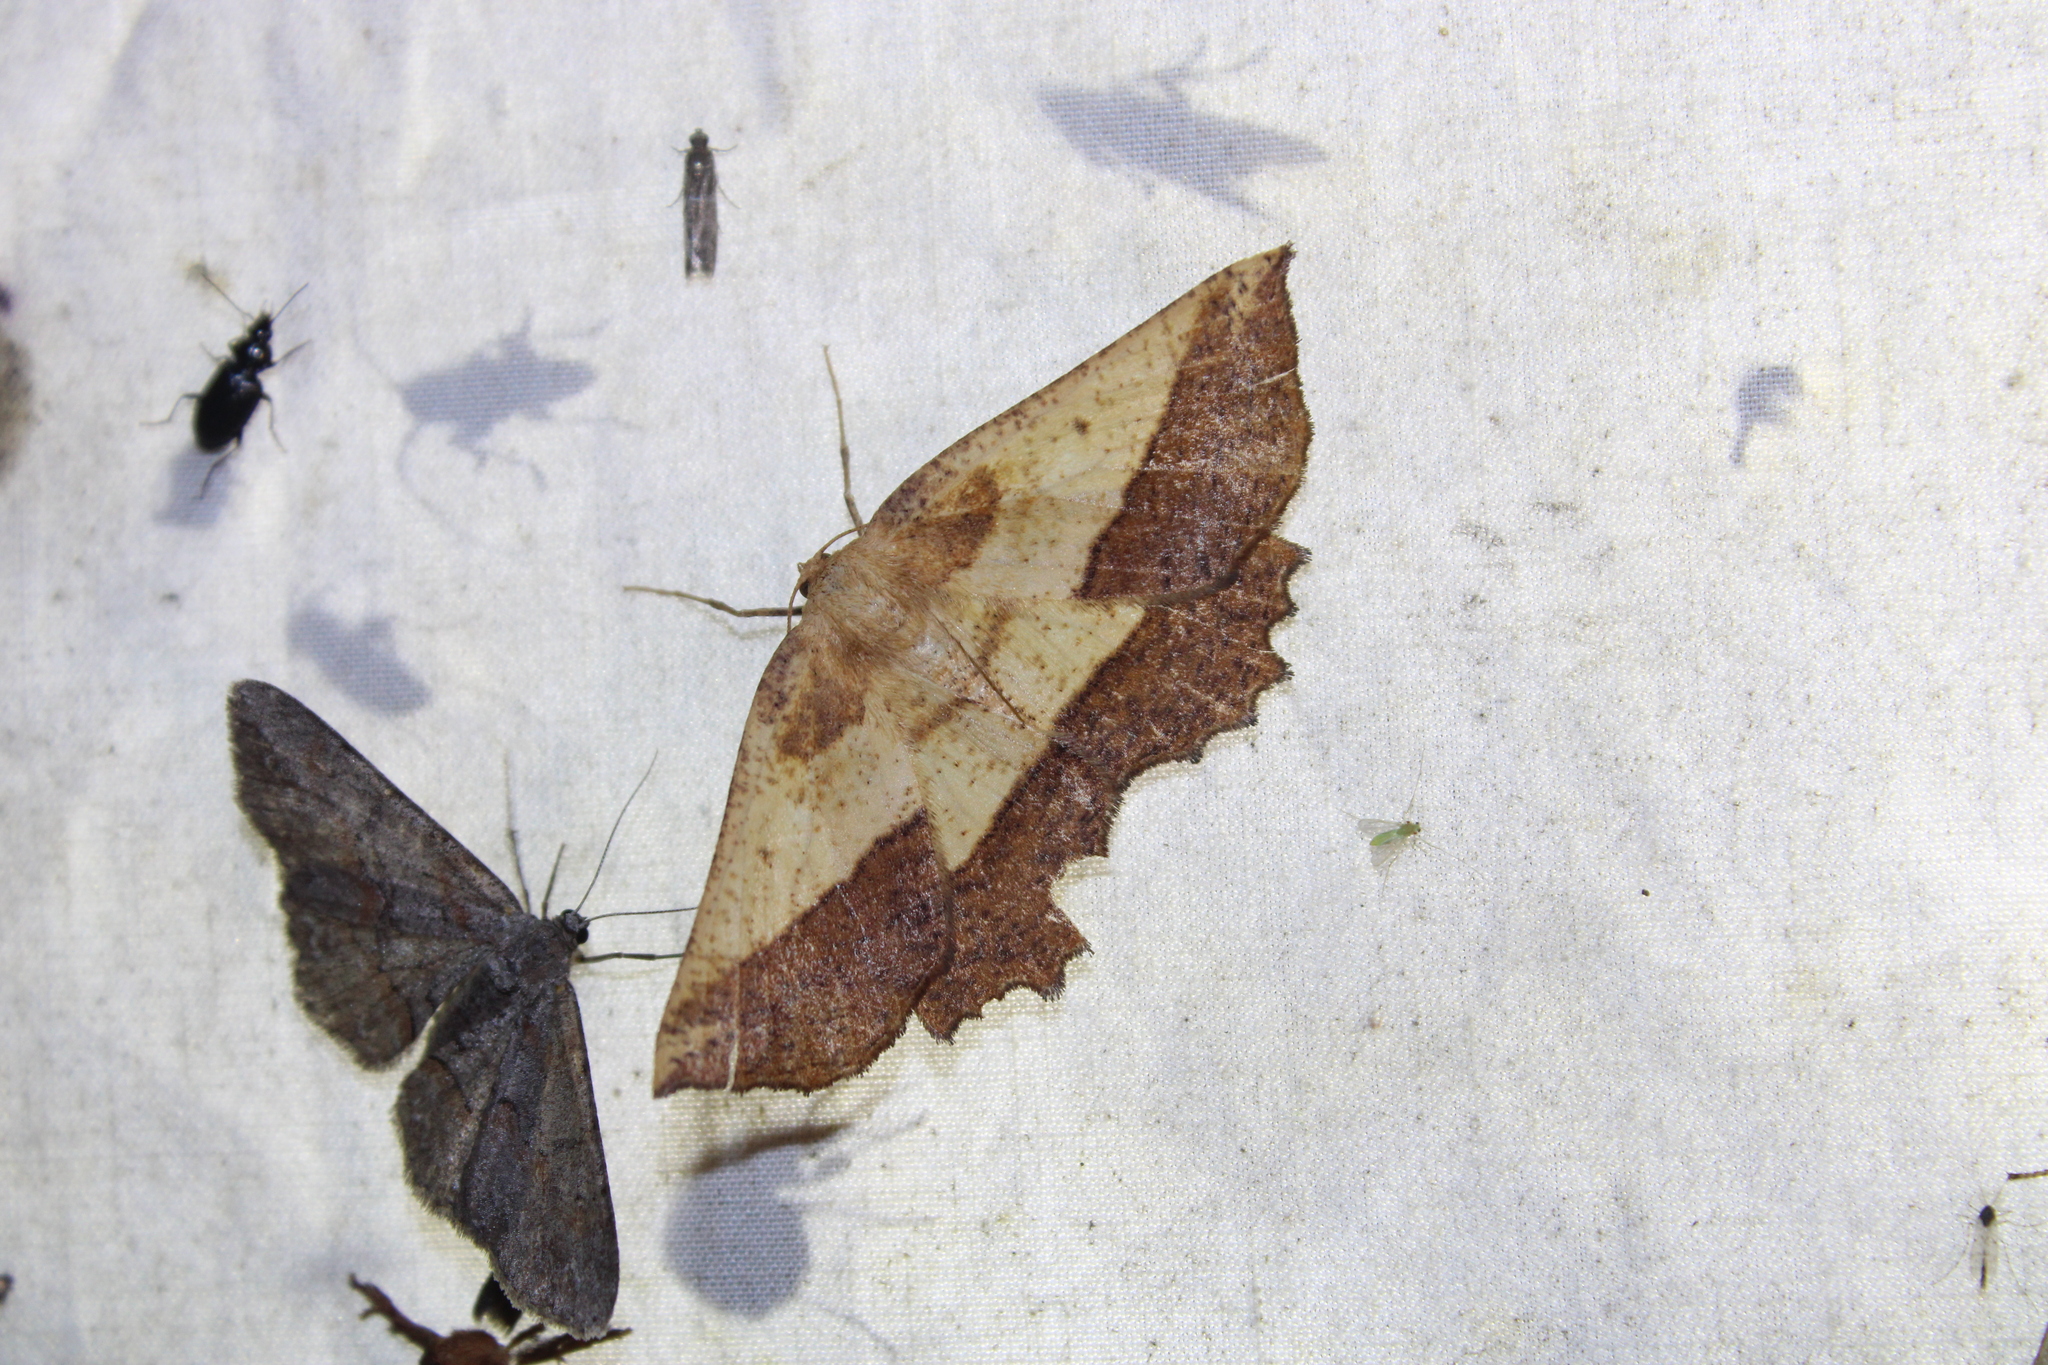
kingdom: Animalia
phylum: Arthropoda
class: Insecta
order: Lepidoptera
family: Geometridae
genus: Euchlaena
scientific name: Euchlaena serrata
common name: Saw wing
